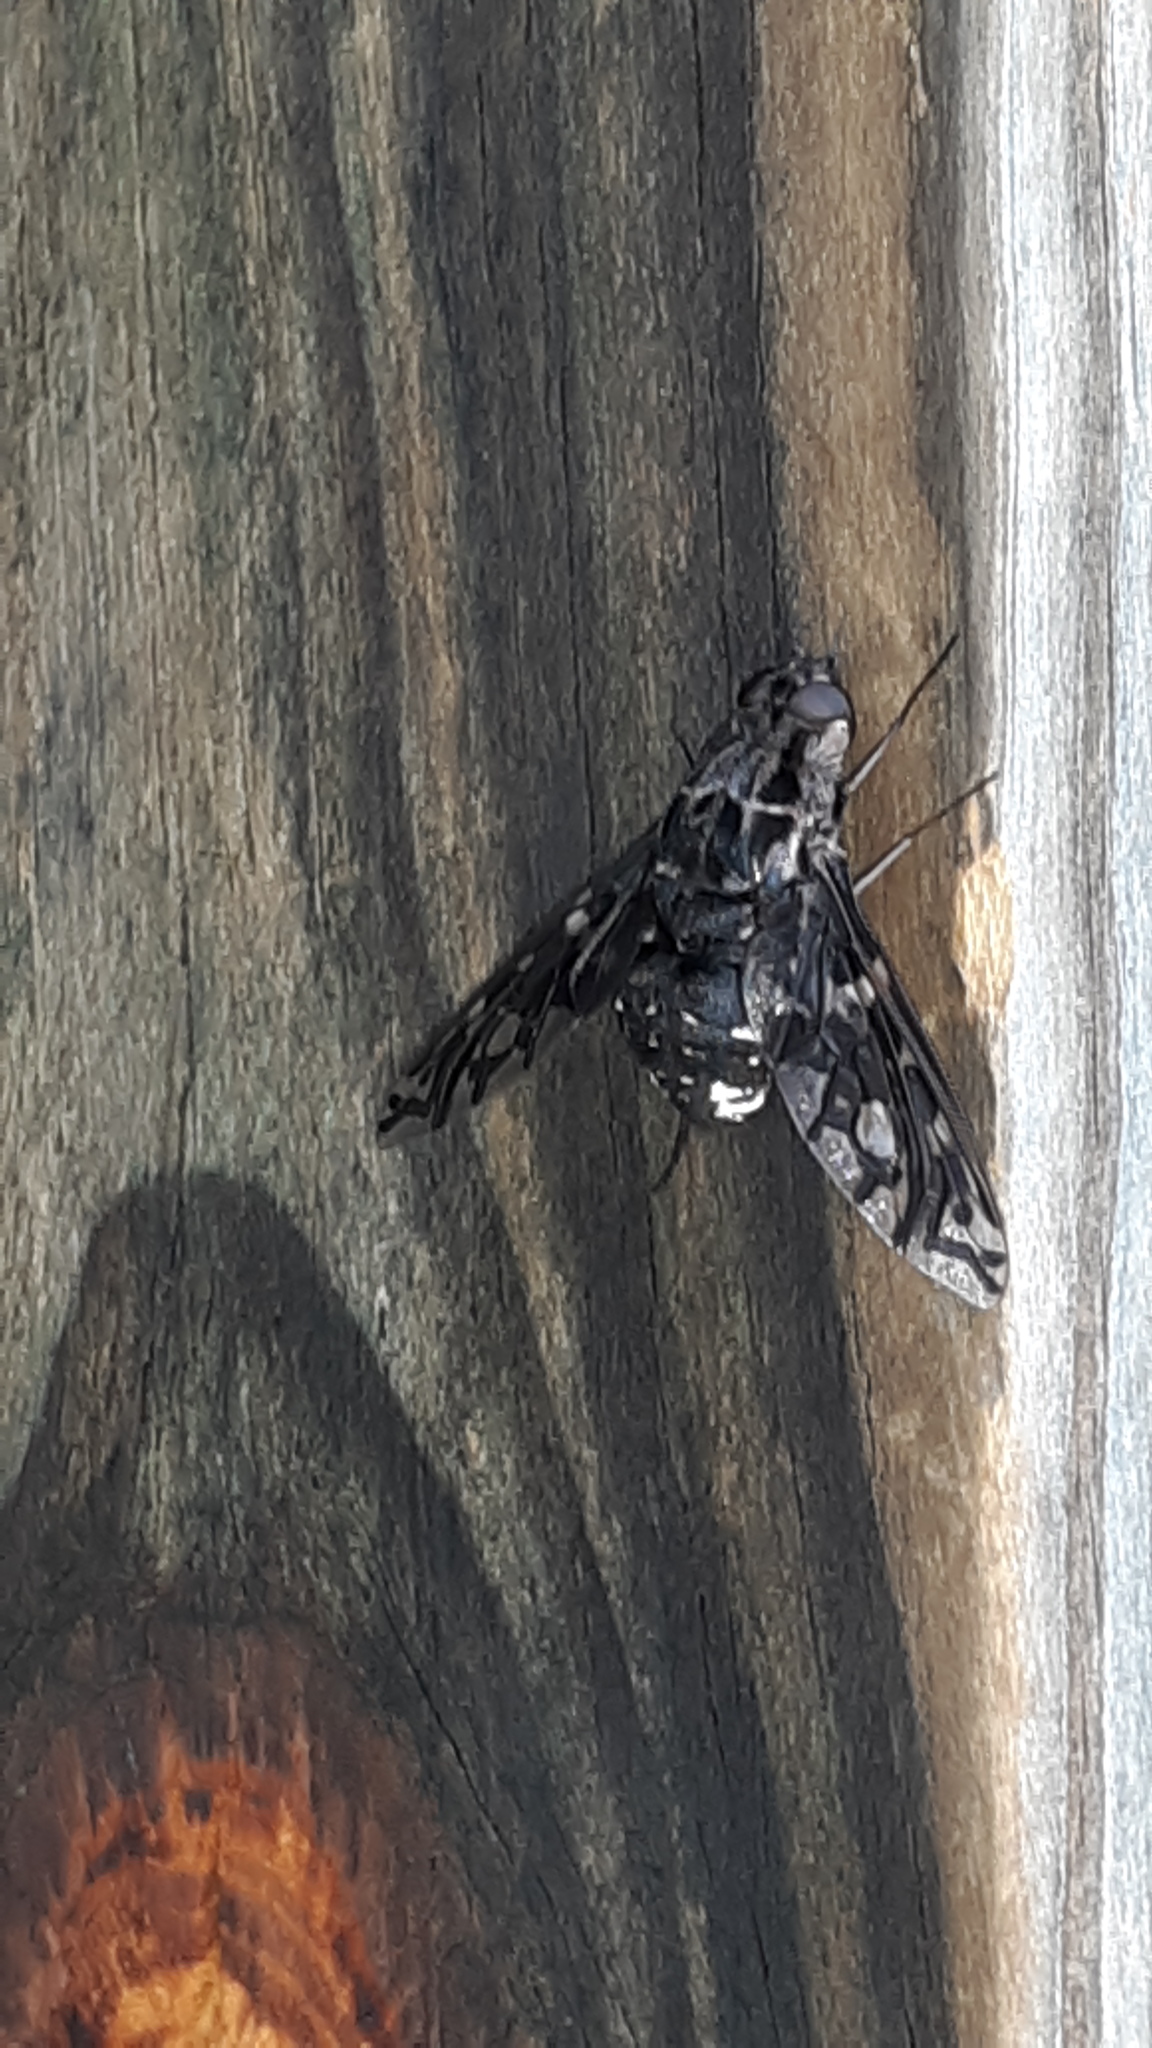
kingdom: Animalia
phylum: Arthropoda
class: Insecta
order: Diptera
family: Bombyliidae
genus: Xenox
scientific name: Xenox tigrinus
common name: Tiger bee fly
